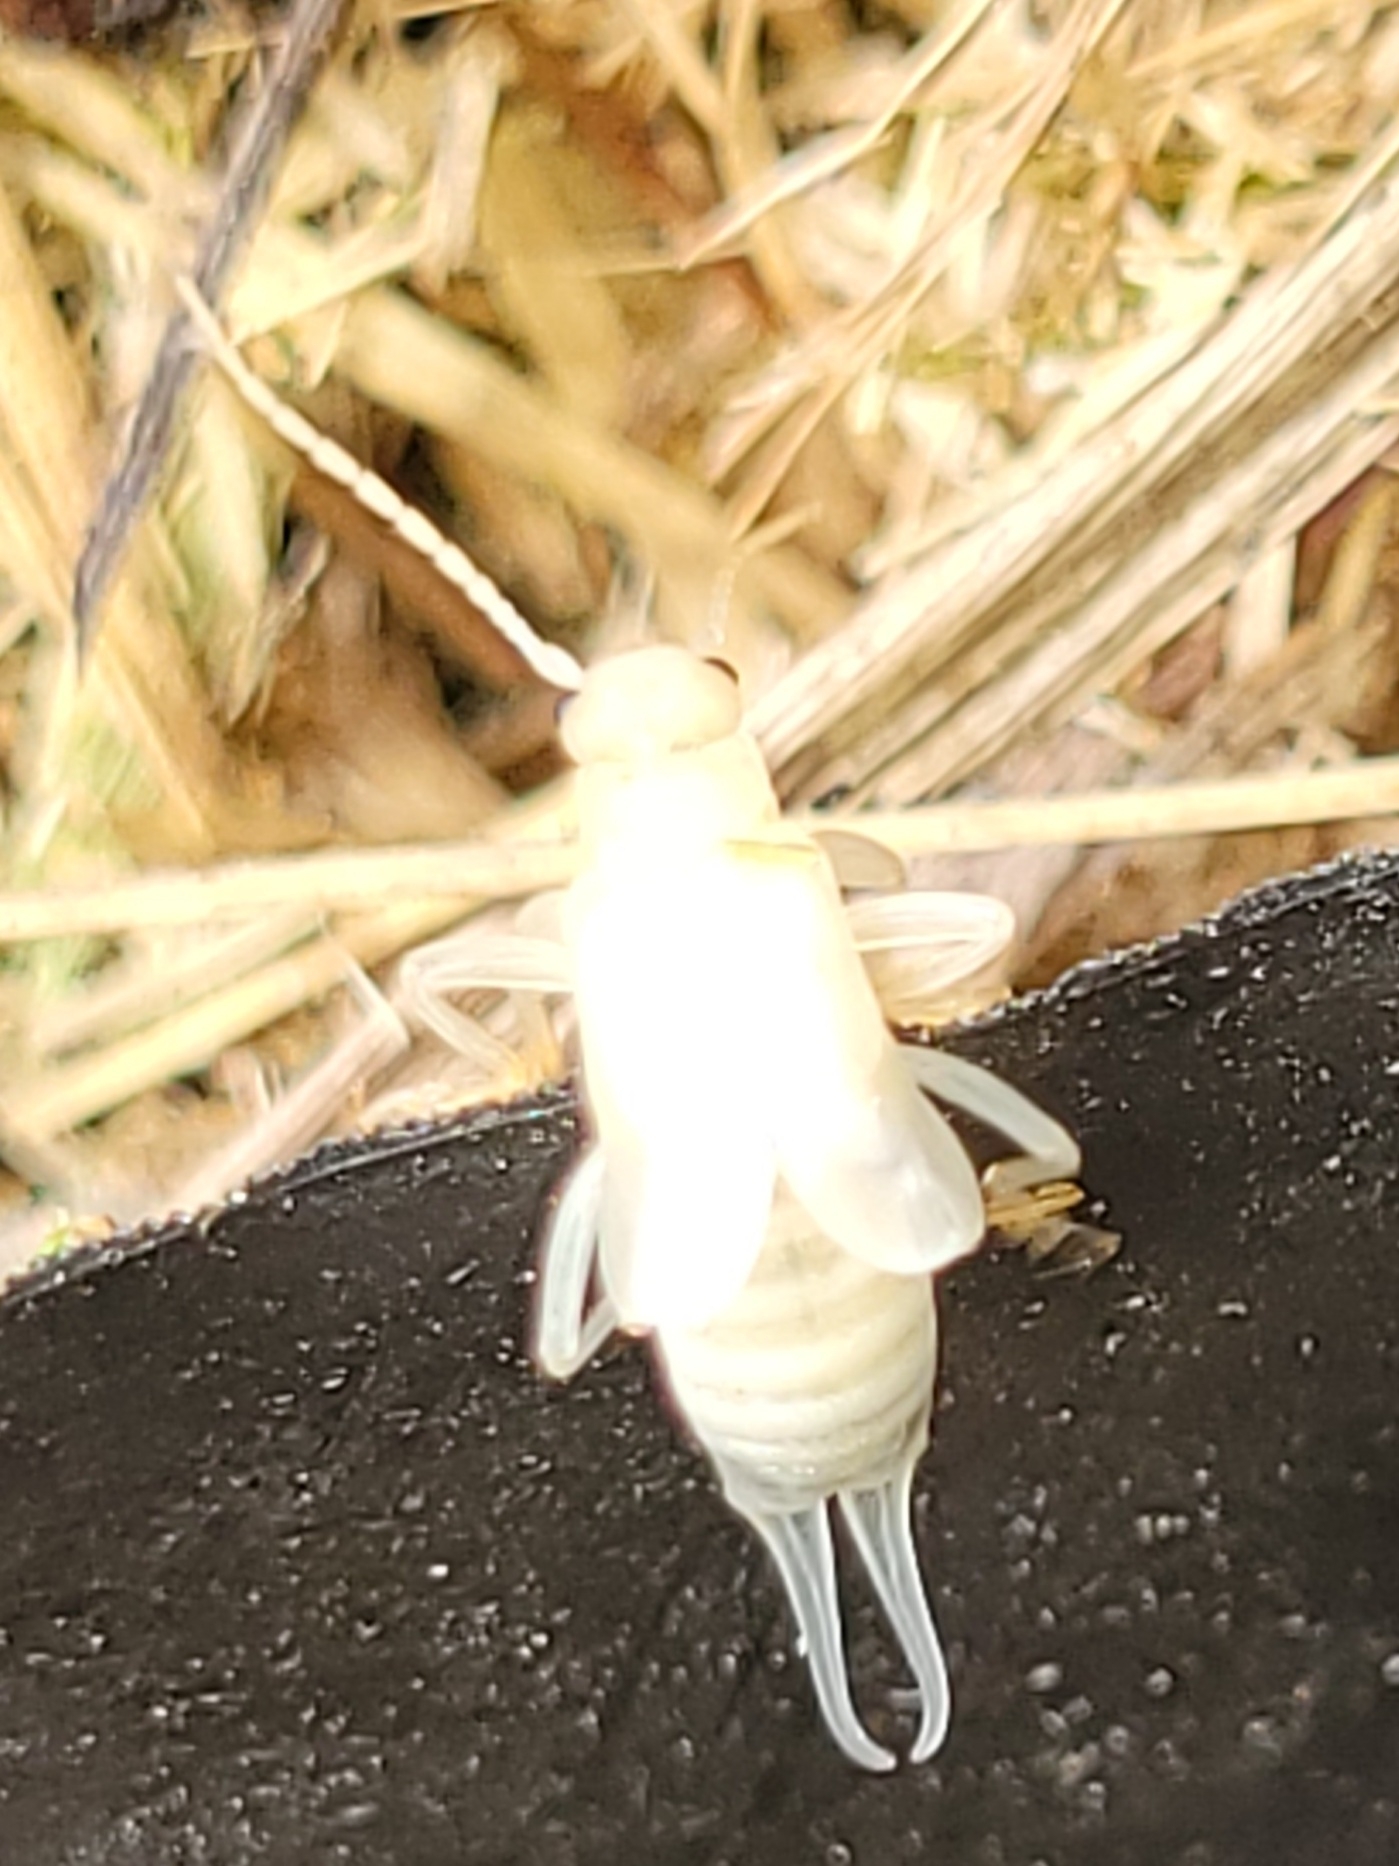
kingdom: Animalia
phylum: Arthropoda
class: Insecta
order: Dermaptera
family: Forficulidae
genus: Forficula
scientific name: Forficula
